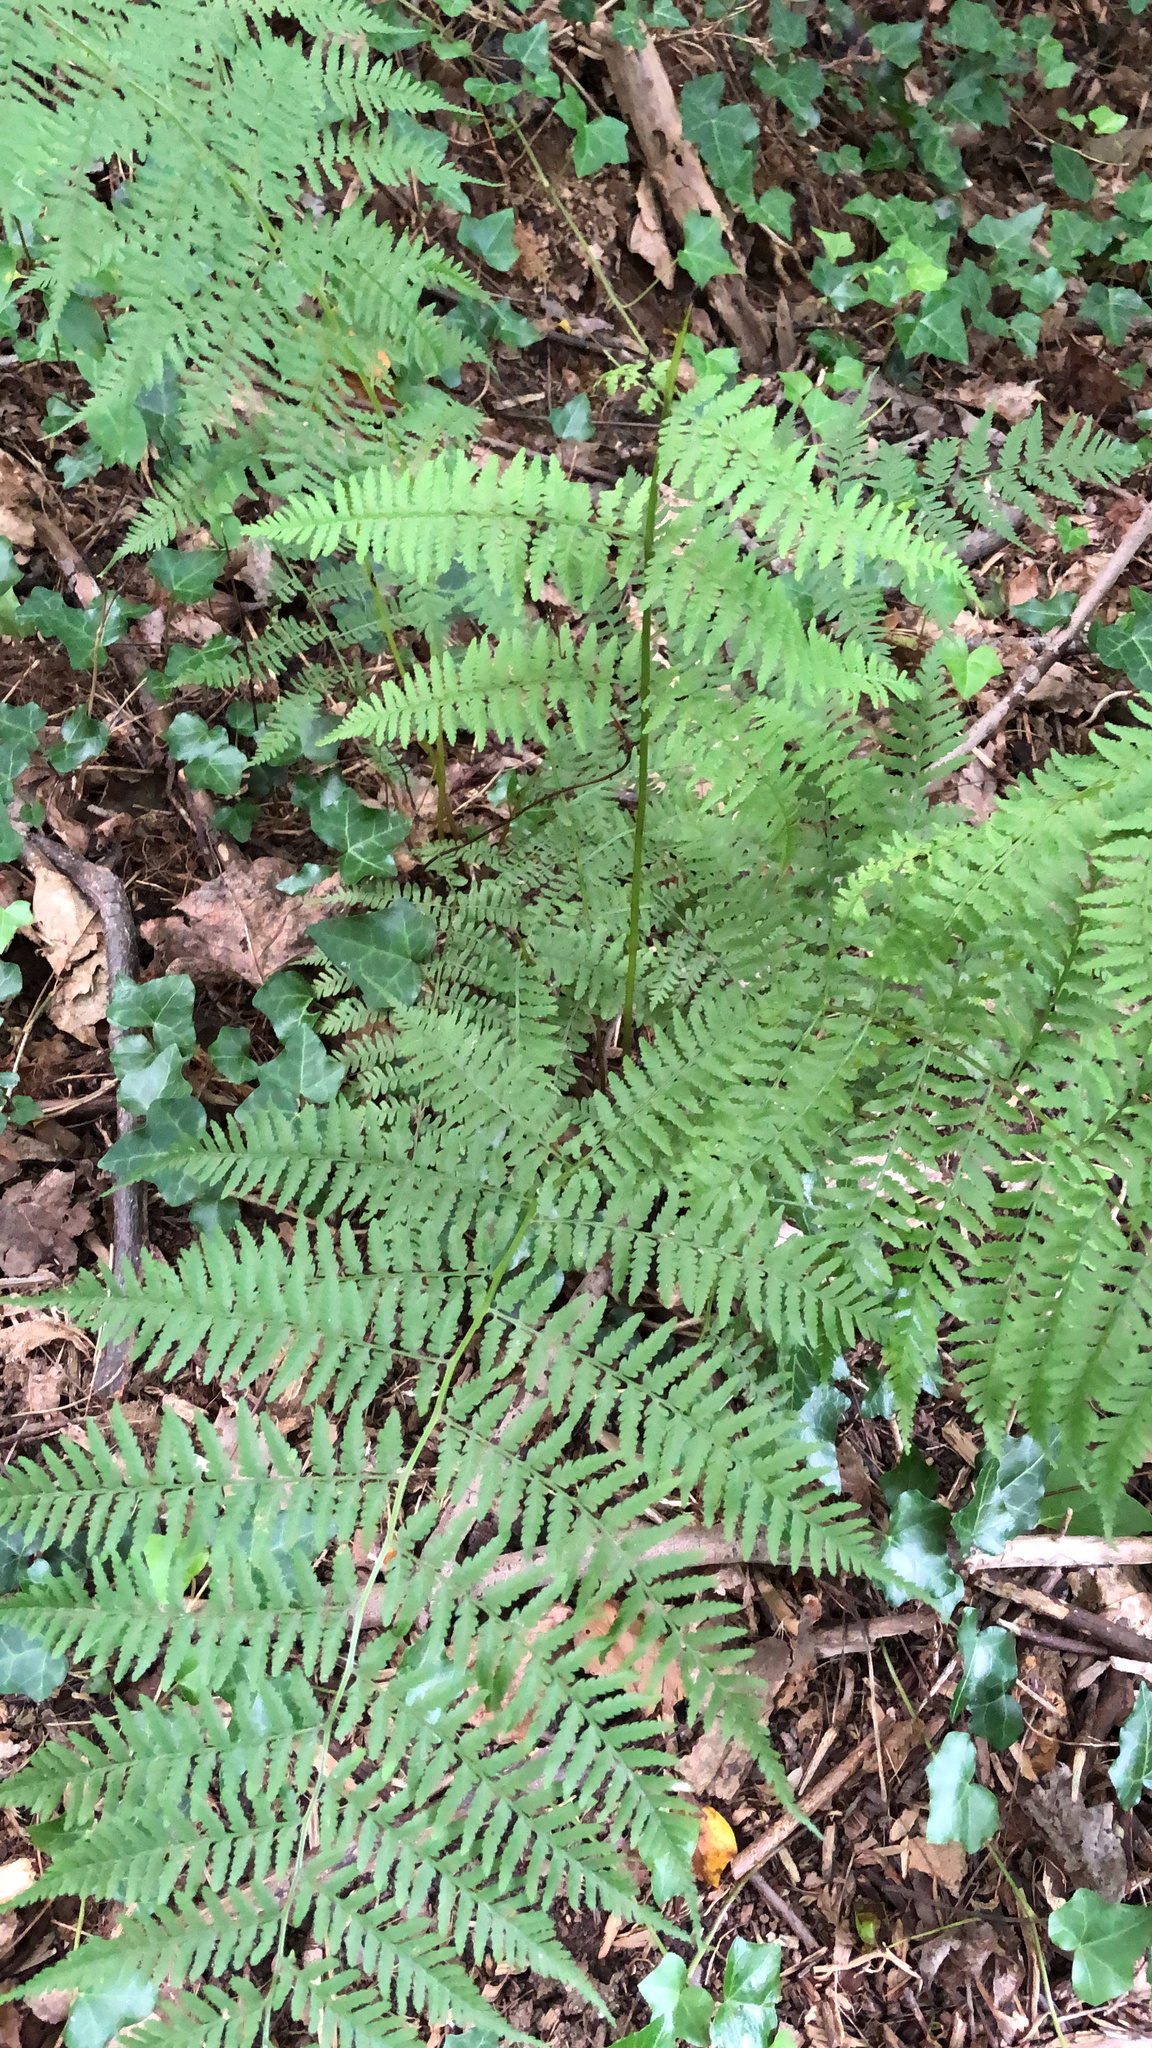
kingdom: Plantae
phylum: Tracheophyta
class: Polypodiopsida
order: Polypodiales
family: Athyriaceae
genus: Athyrium
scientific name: Athyrium asplenioides
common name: Southern lady fern
